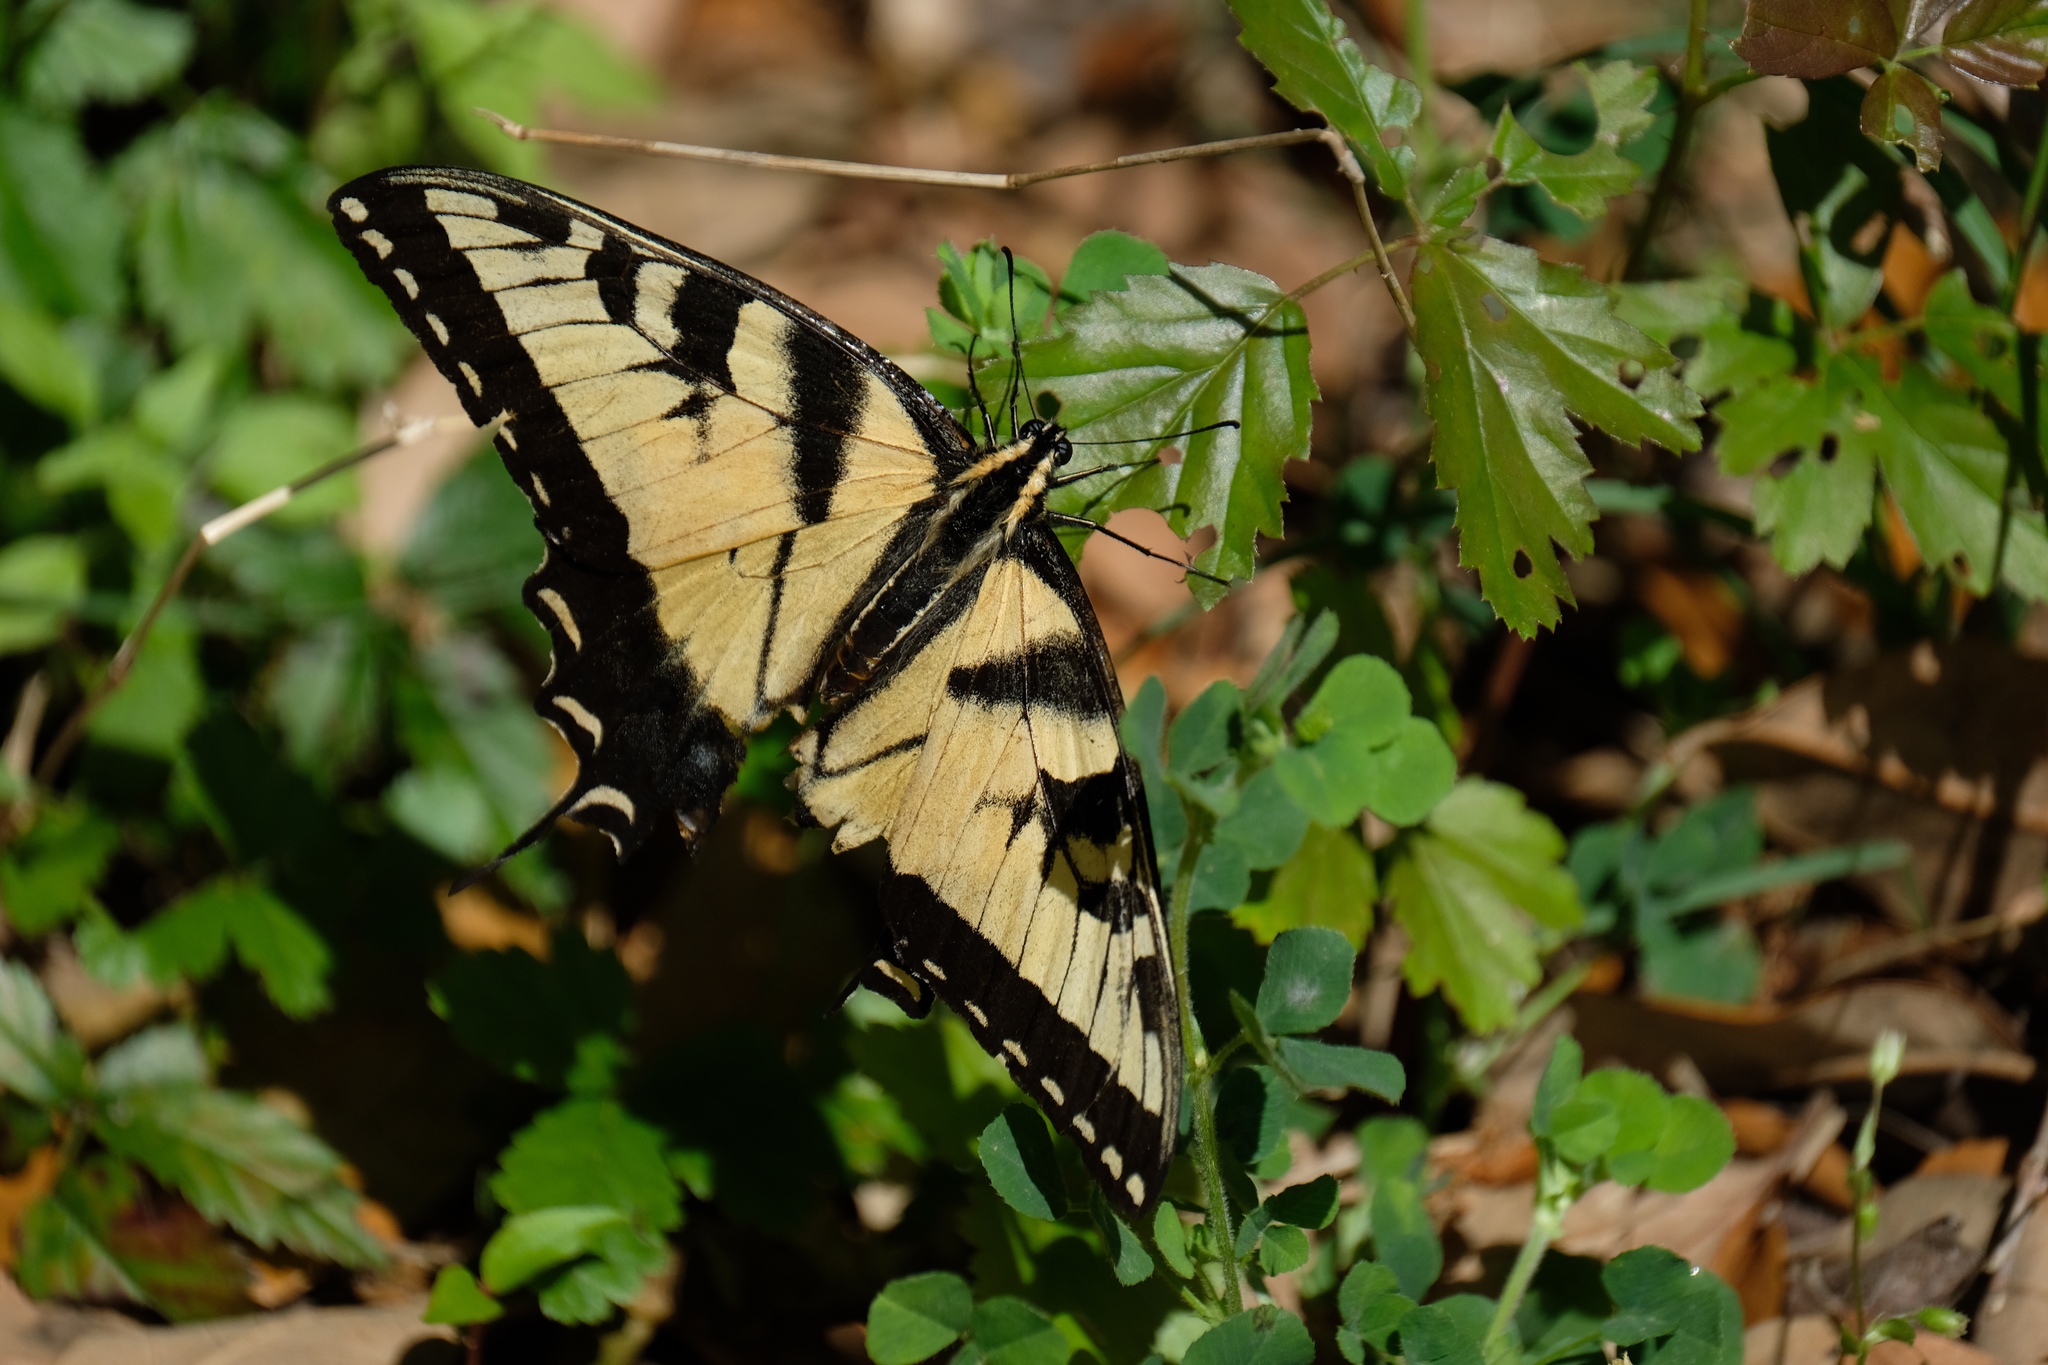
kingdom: Animalia
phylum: Arthropoda
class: Insecta
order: Lepidoptera
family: Papilionidae
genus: Papilio
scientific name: Papilio glaucus
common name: Tiger swallowtail
